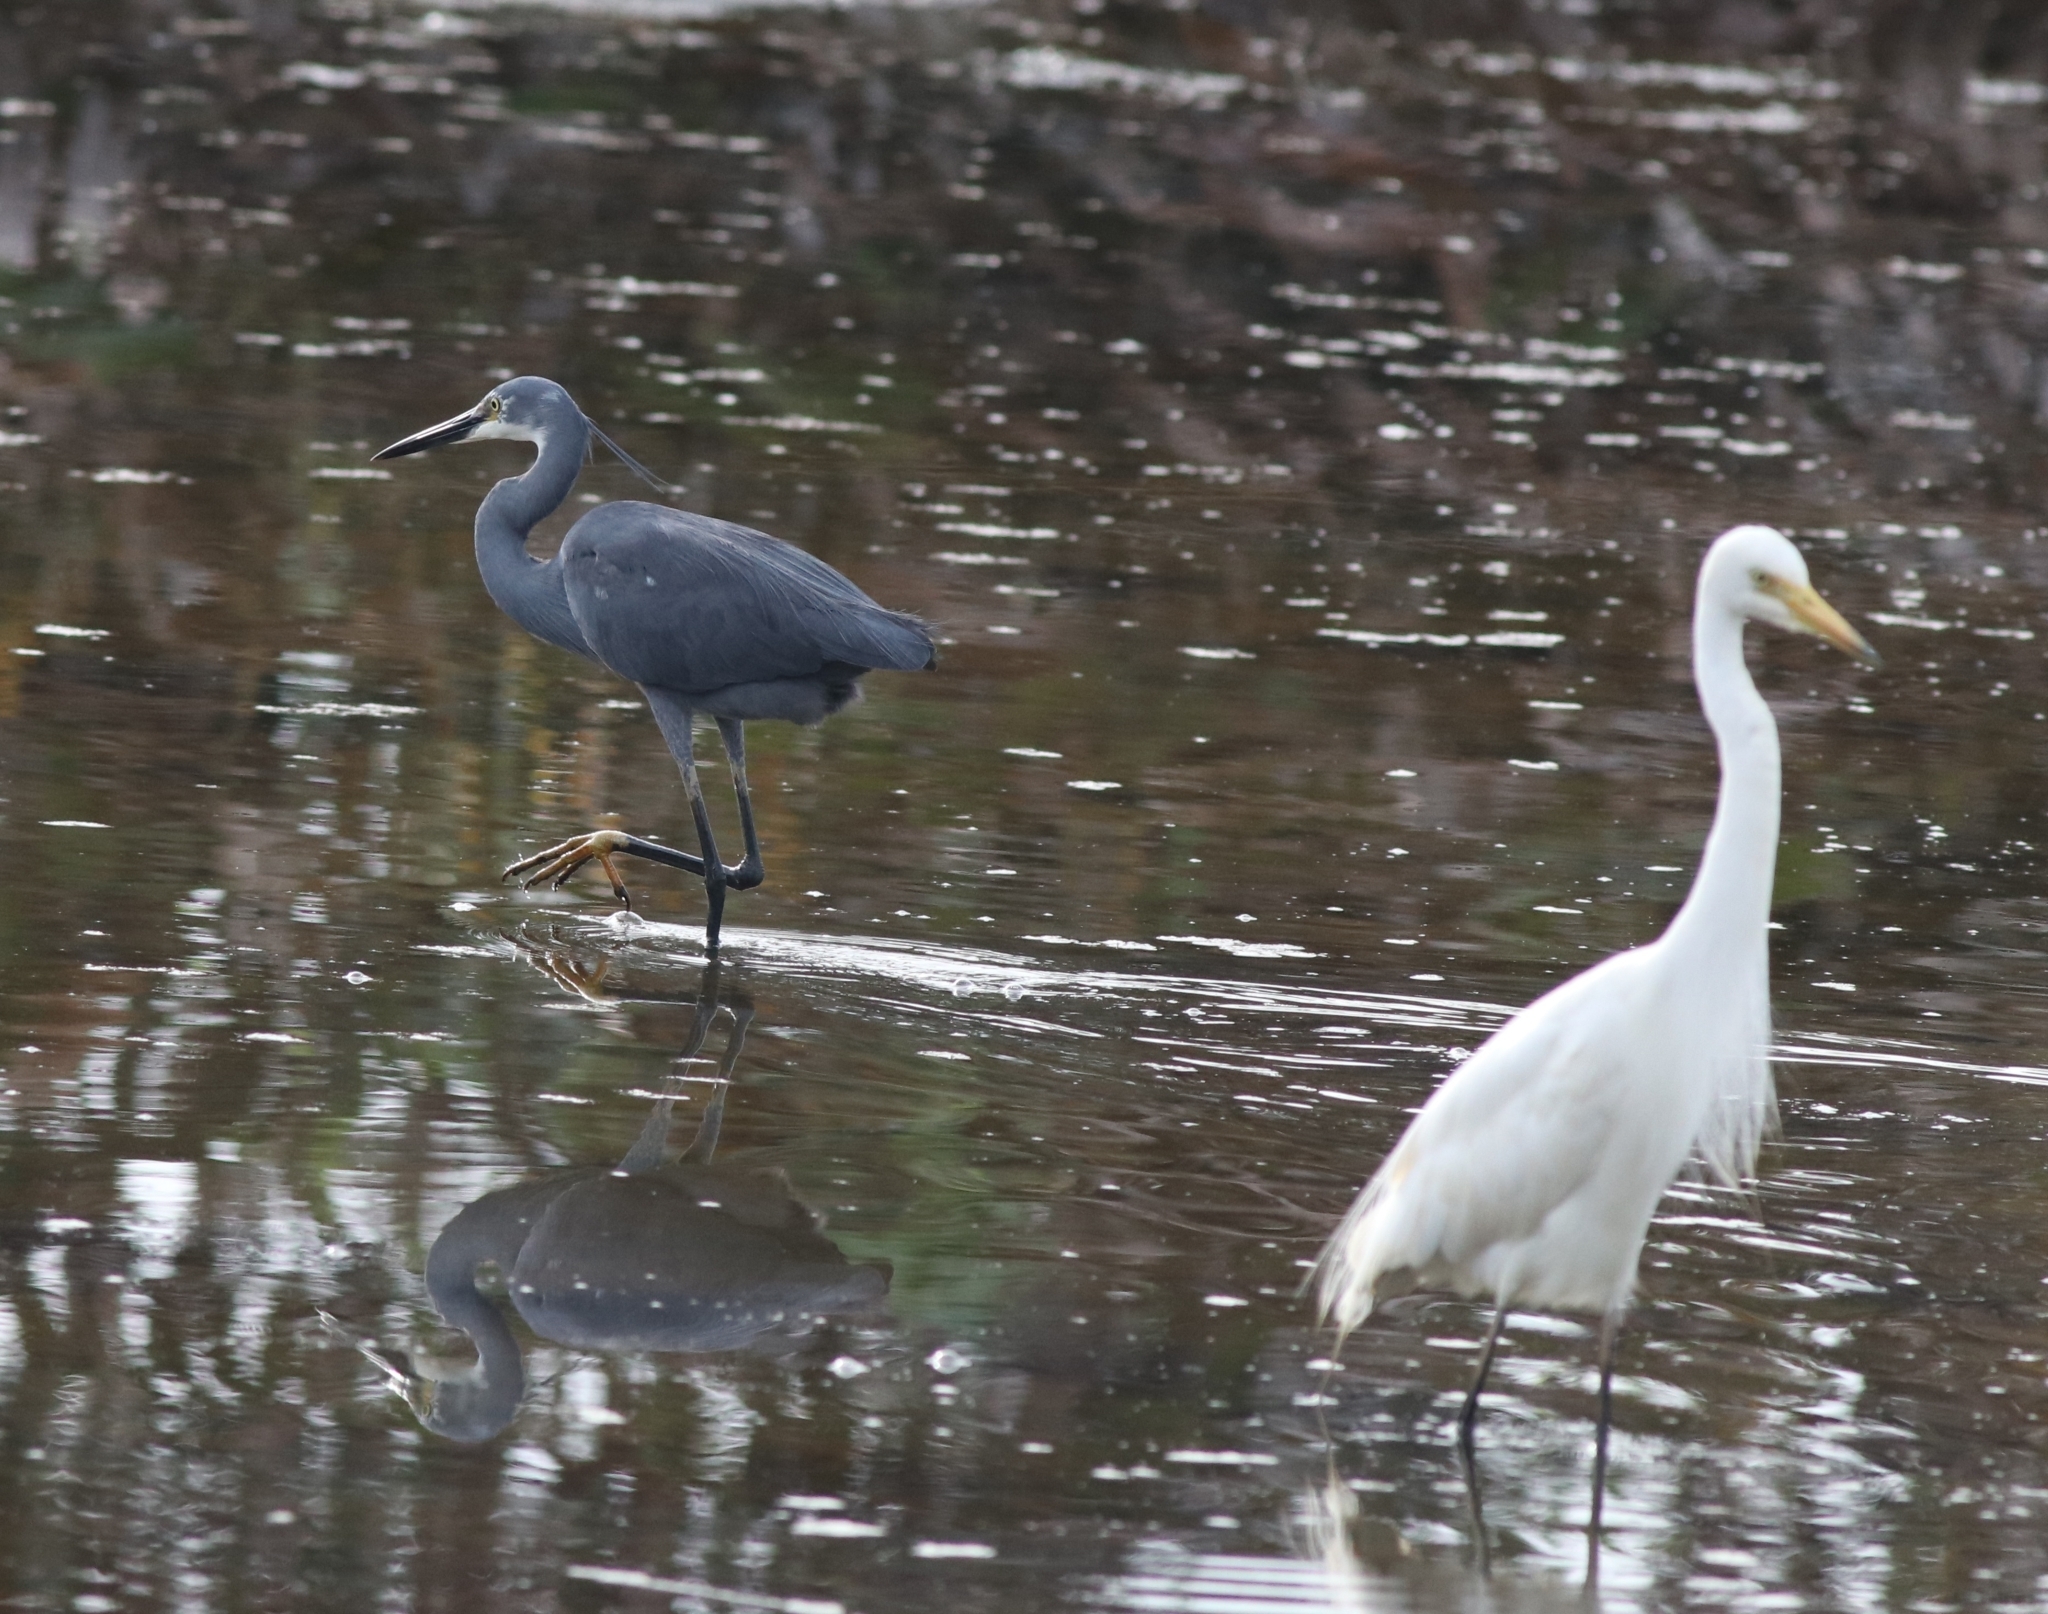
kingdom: Animalia
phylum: Chordata
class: Aves
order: Pelecaniformes
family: Ardeidae
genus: Egretta
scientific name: Egretta intermedia
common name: Intermediate egret
